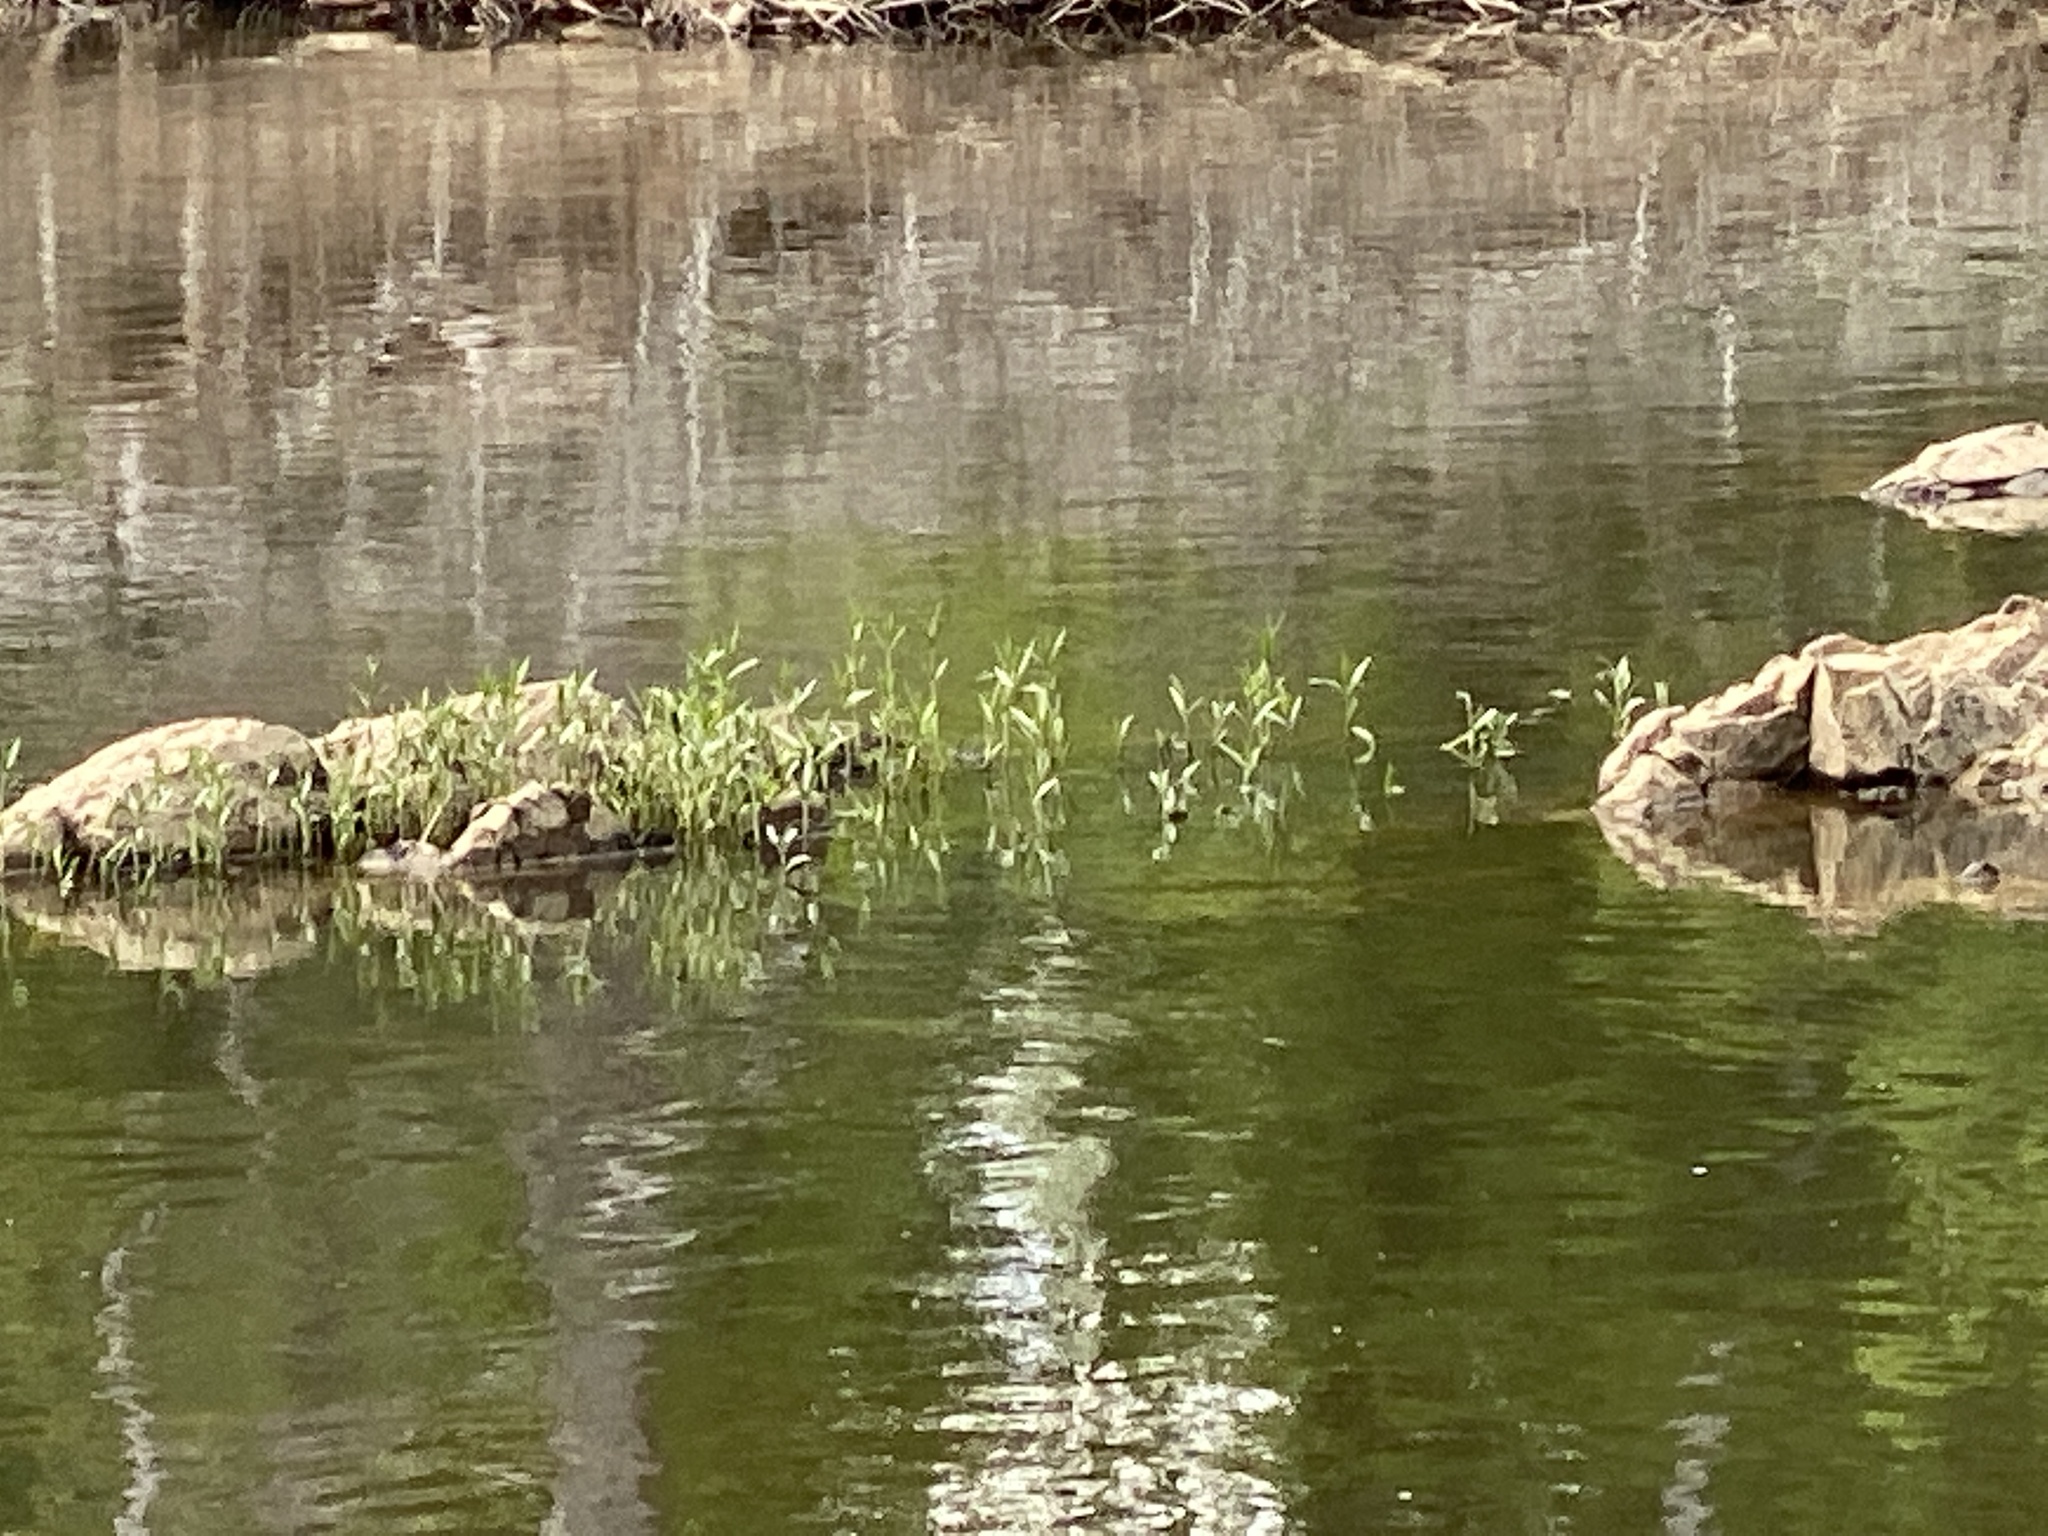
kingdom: Plantae
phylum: Tracheophyta
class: Magnoliopsida
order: Lamiales
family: Acanthaceae
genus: Dianthera
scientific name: Dianthera americana
